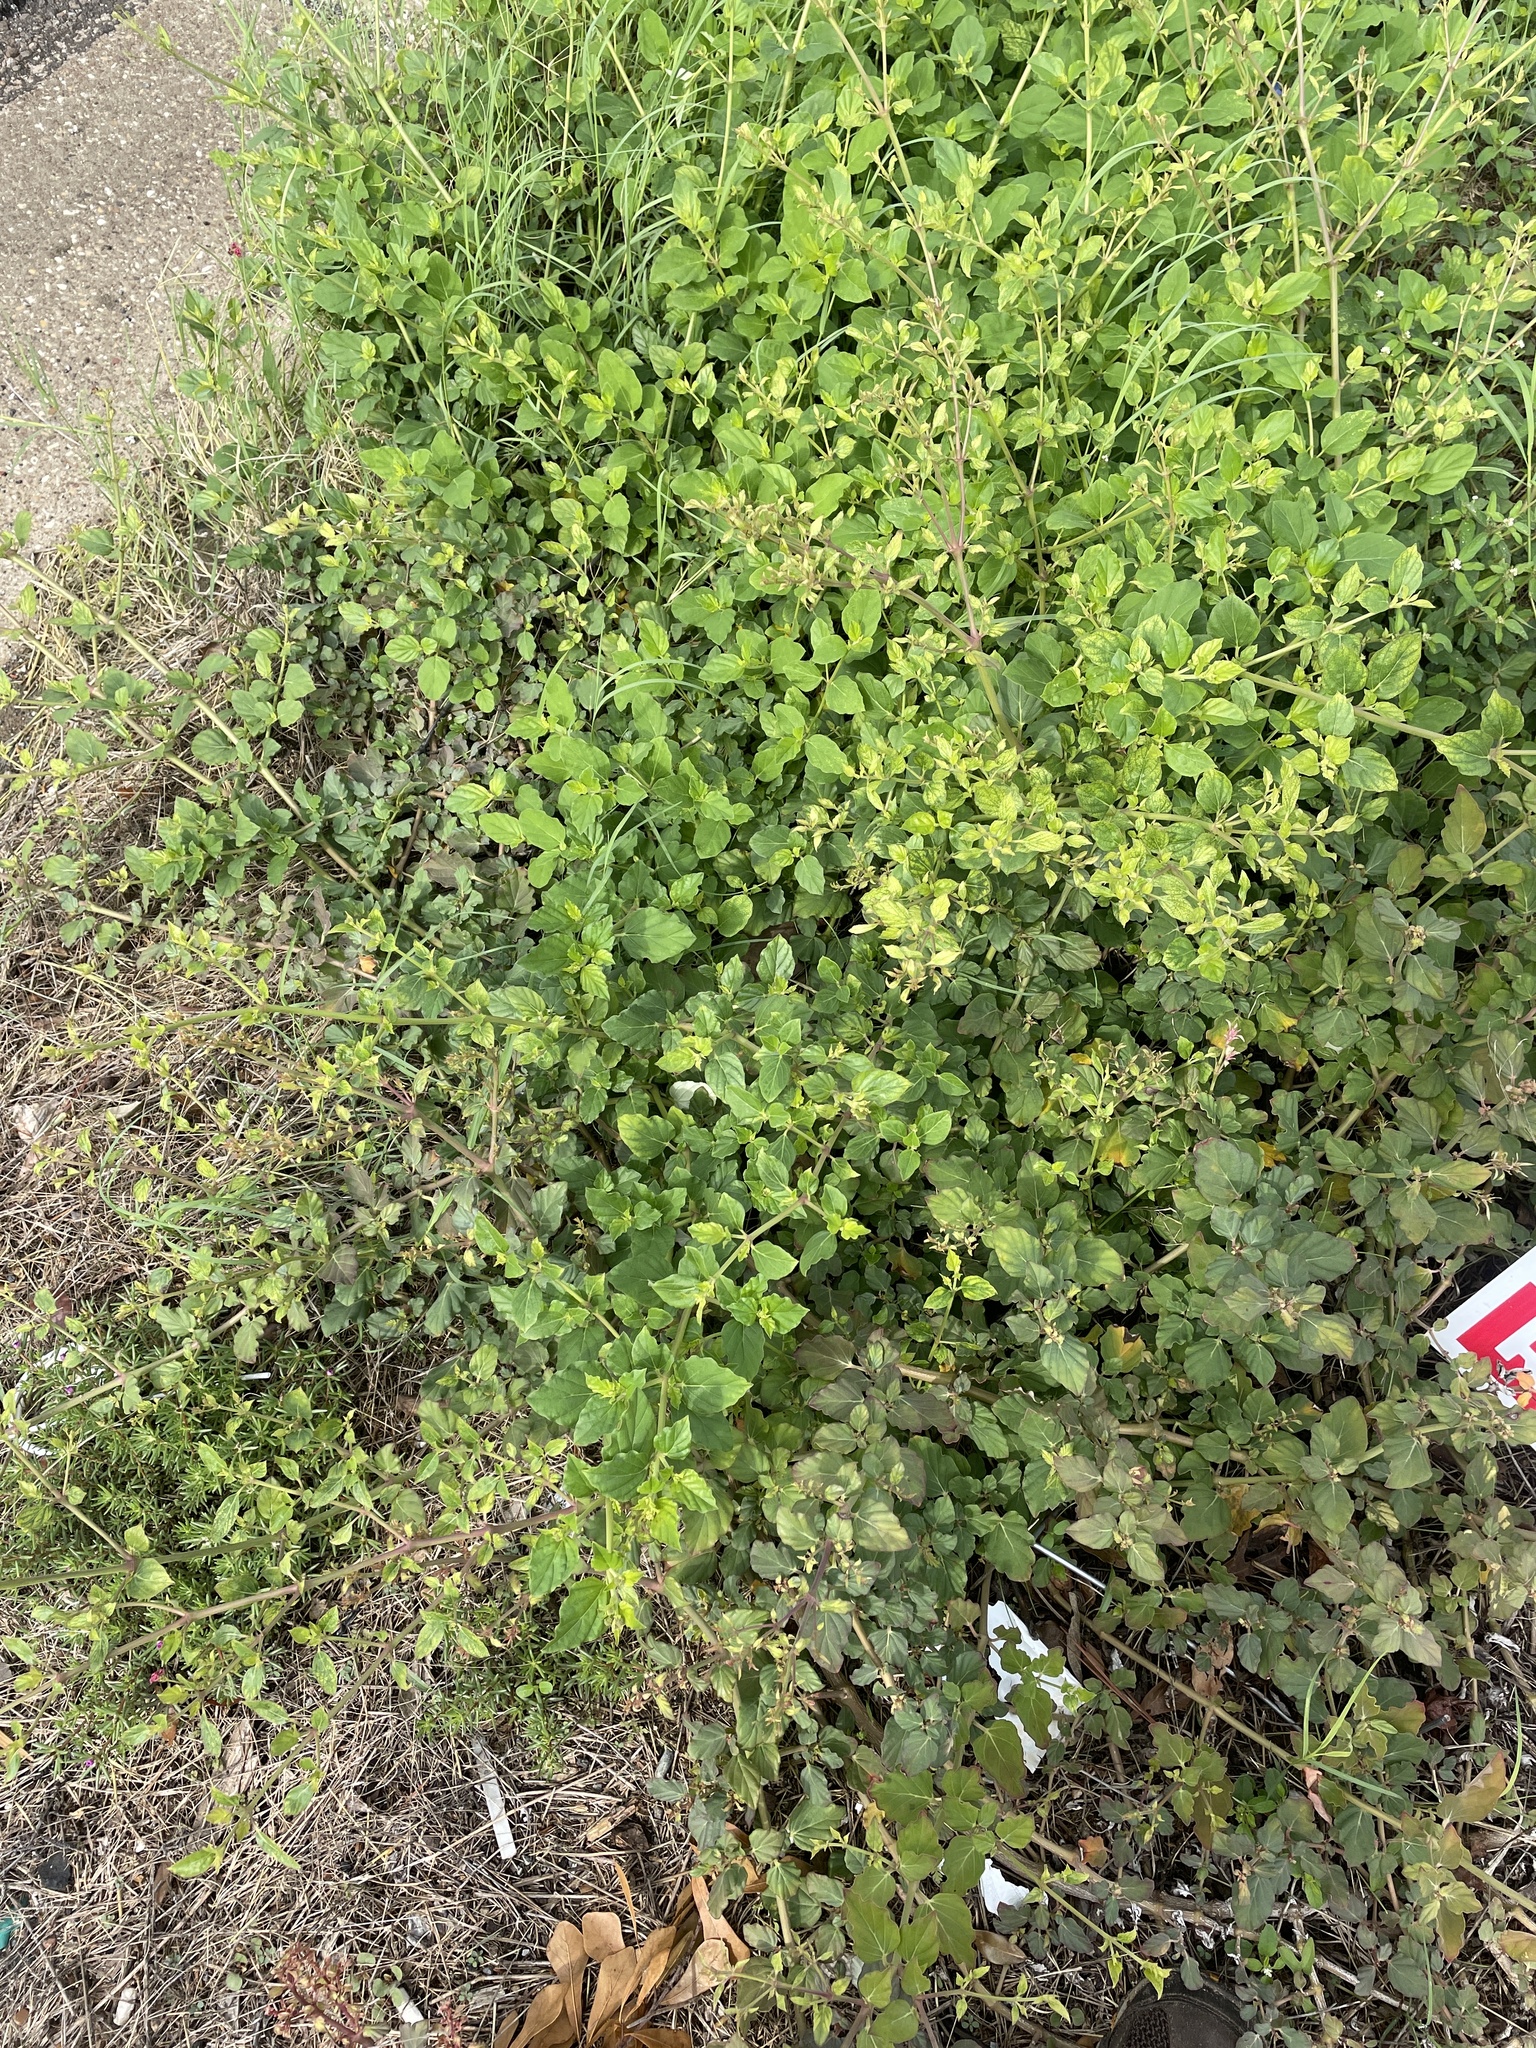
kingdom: Plantae
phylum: Tracheophyta
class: Magnoliopsida
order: Caryophyllales
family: Nyctaginaceae
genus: Boerhavia
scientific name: Boerhavia coccinea
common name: Scarlet spiderling
